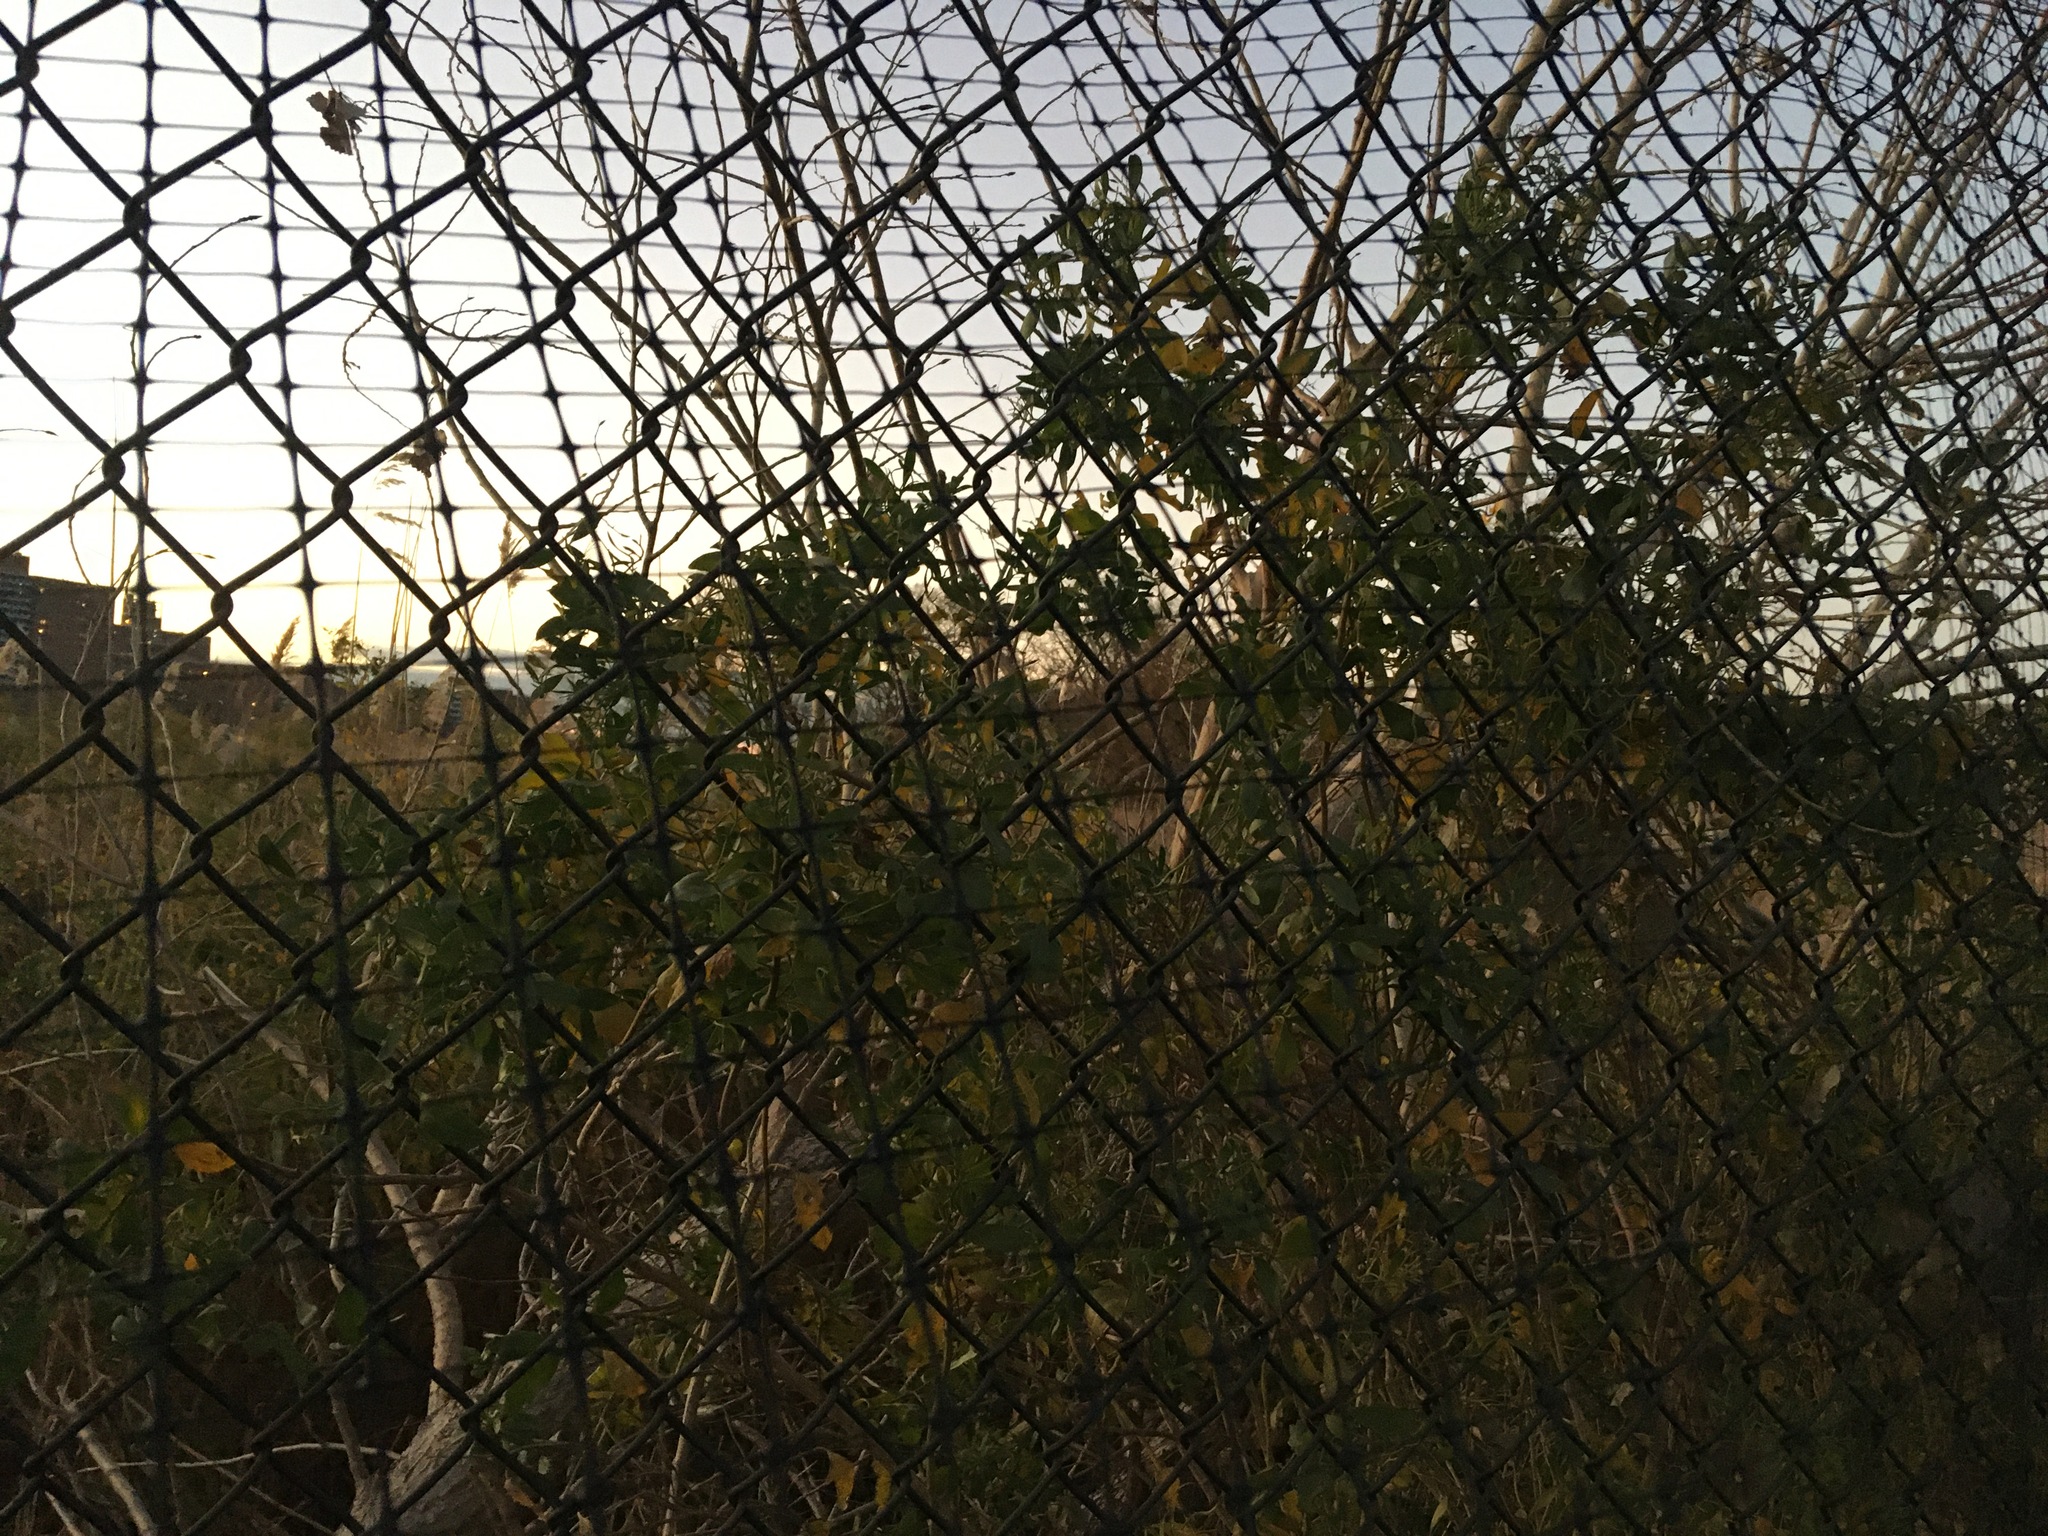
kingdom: Plantae
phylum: Tracheophyta
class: Magnoliopsida
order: Asterales
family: Asteraceae
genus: Baccharis
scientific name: Baccharis halimifolia
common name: Eastern baccharis
